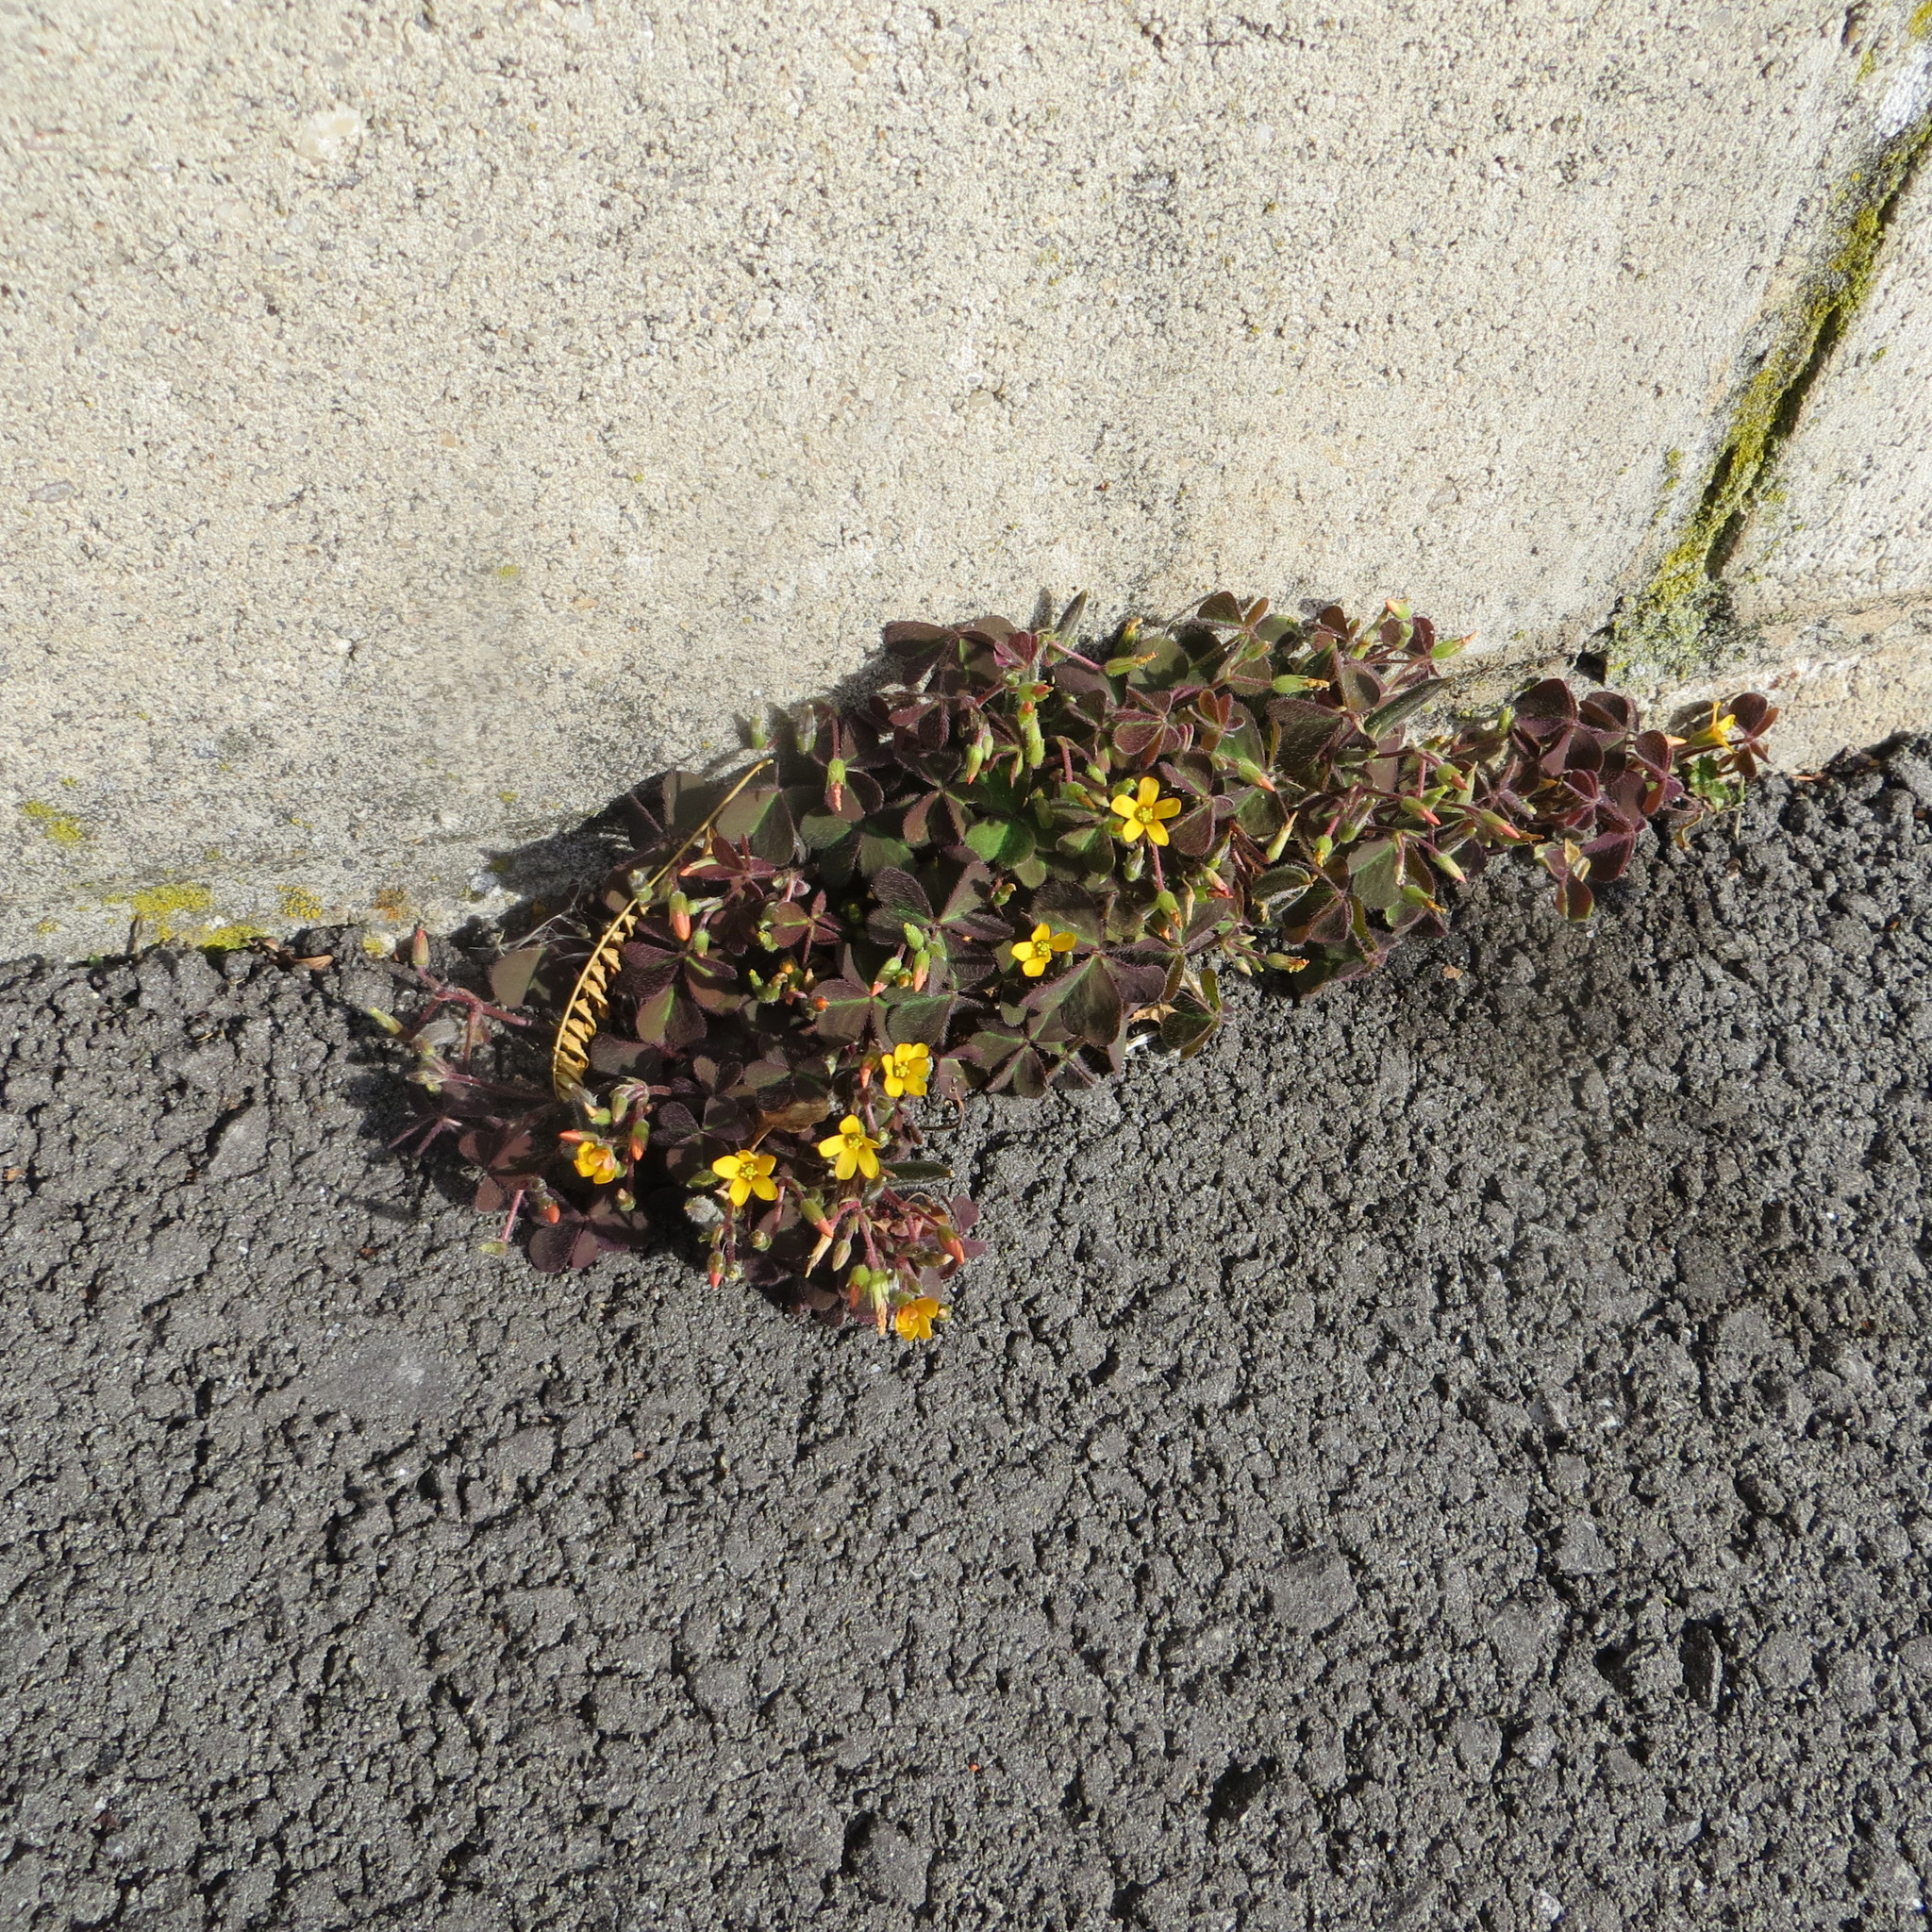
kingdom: Plantae
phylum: Tracheophyta
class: Magnoliopsida
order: Oxalidales
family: Oxalidaceae
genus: Oxalis
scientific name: Oxalis corniculata
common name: Procumbent yellow-sorrel
